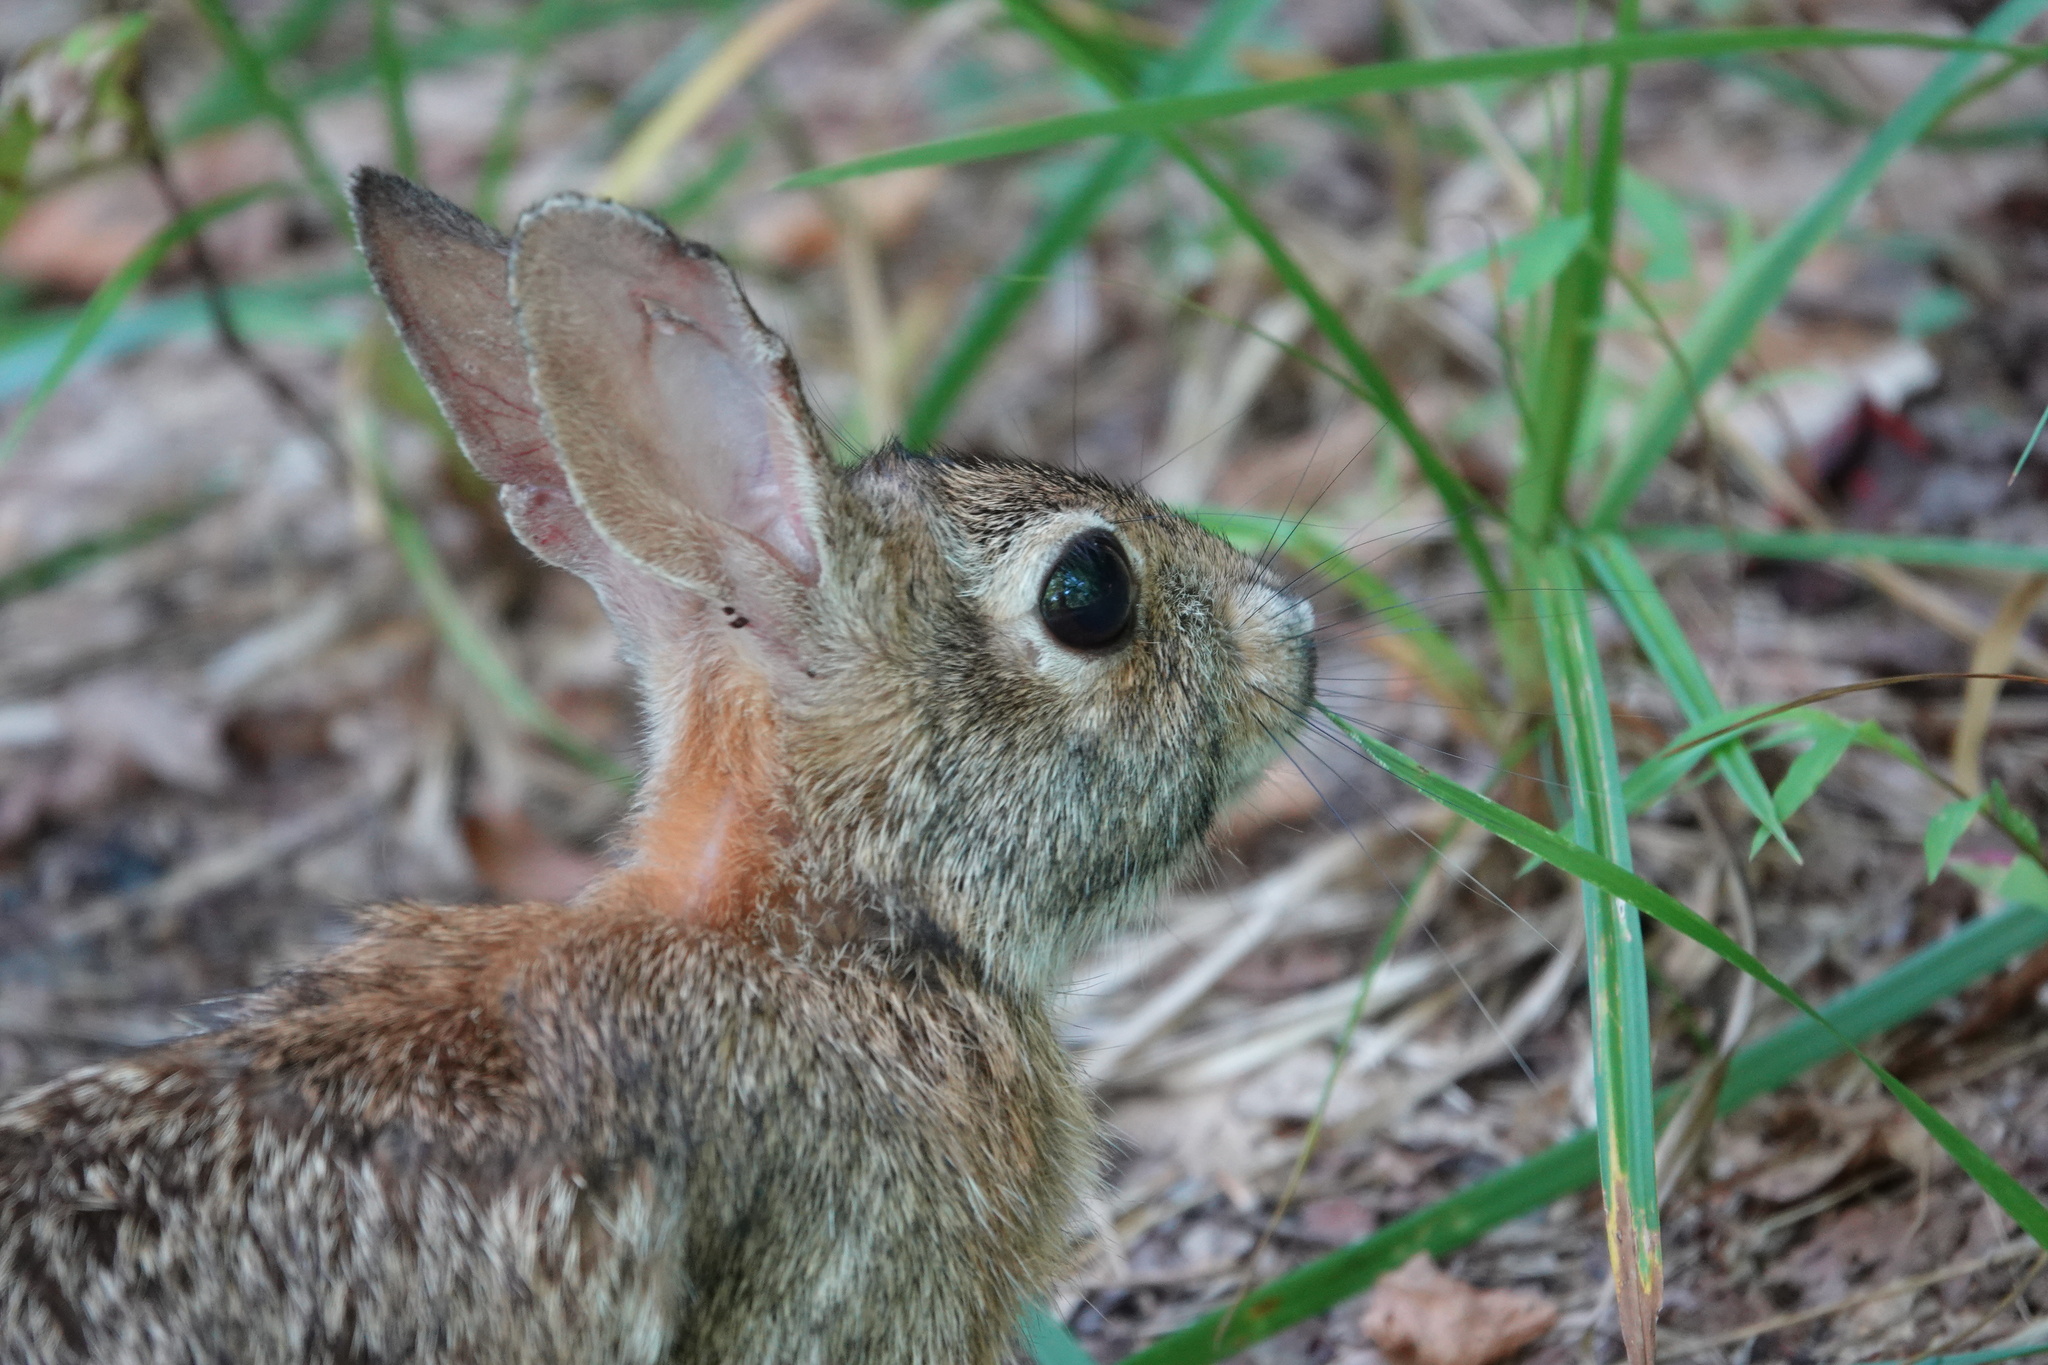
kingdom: Animalia
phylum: Chordata
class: Mammalia
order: Lagomorpha
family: Leporidae
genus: Sylvilagus
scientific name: Sylvilagus floridanus
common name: Eastern cottontail
